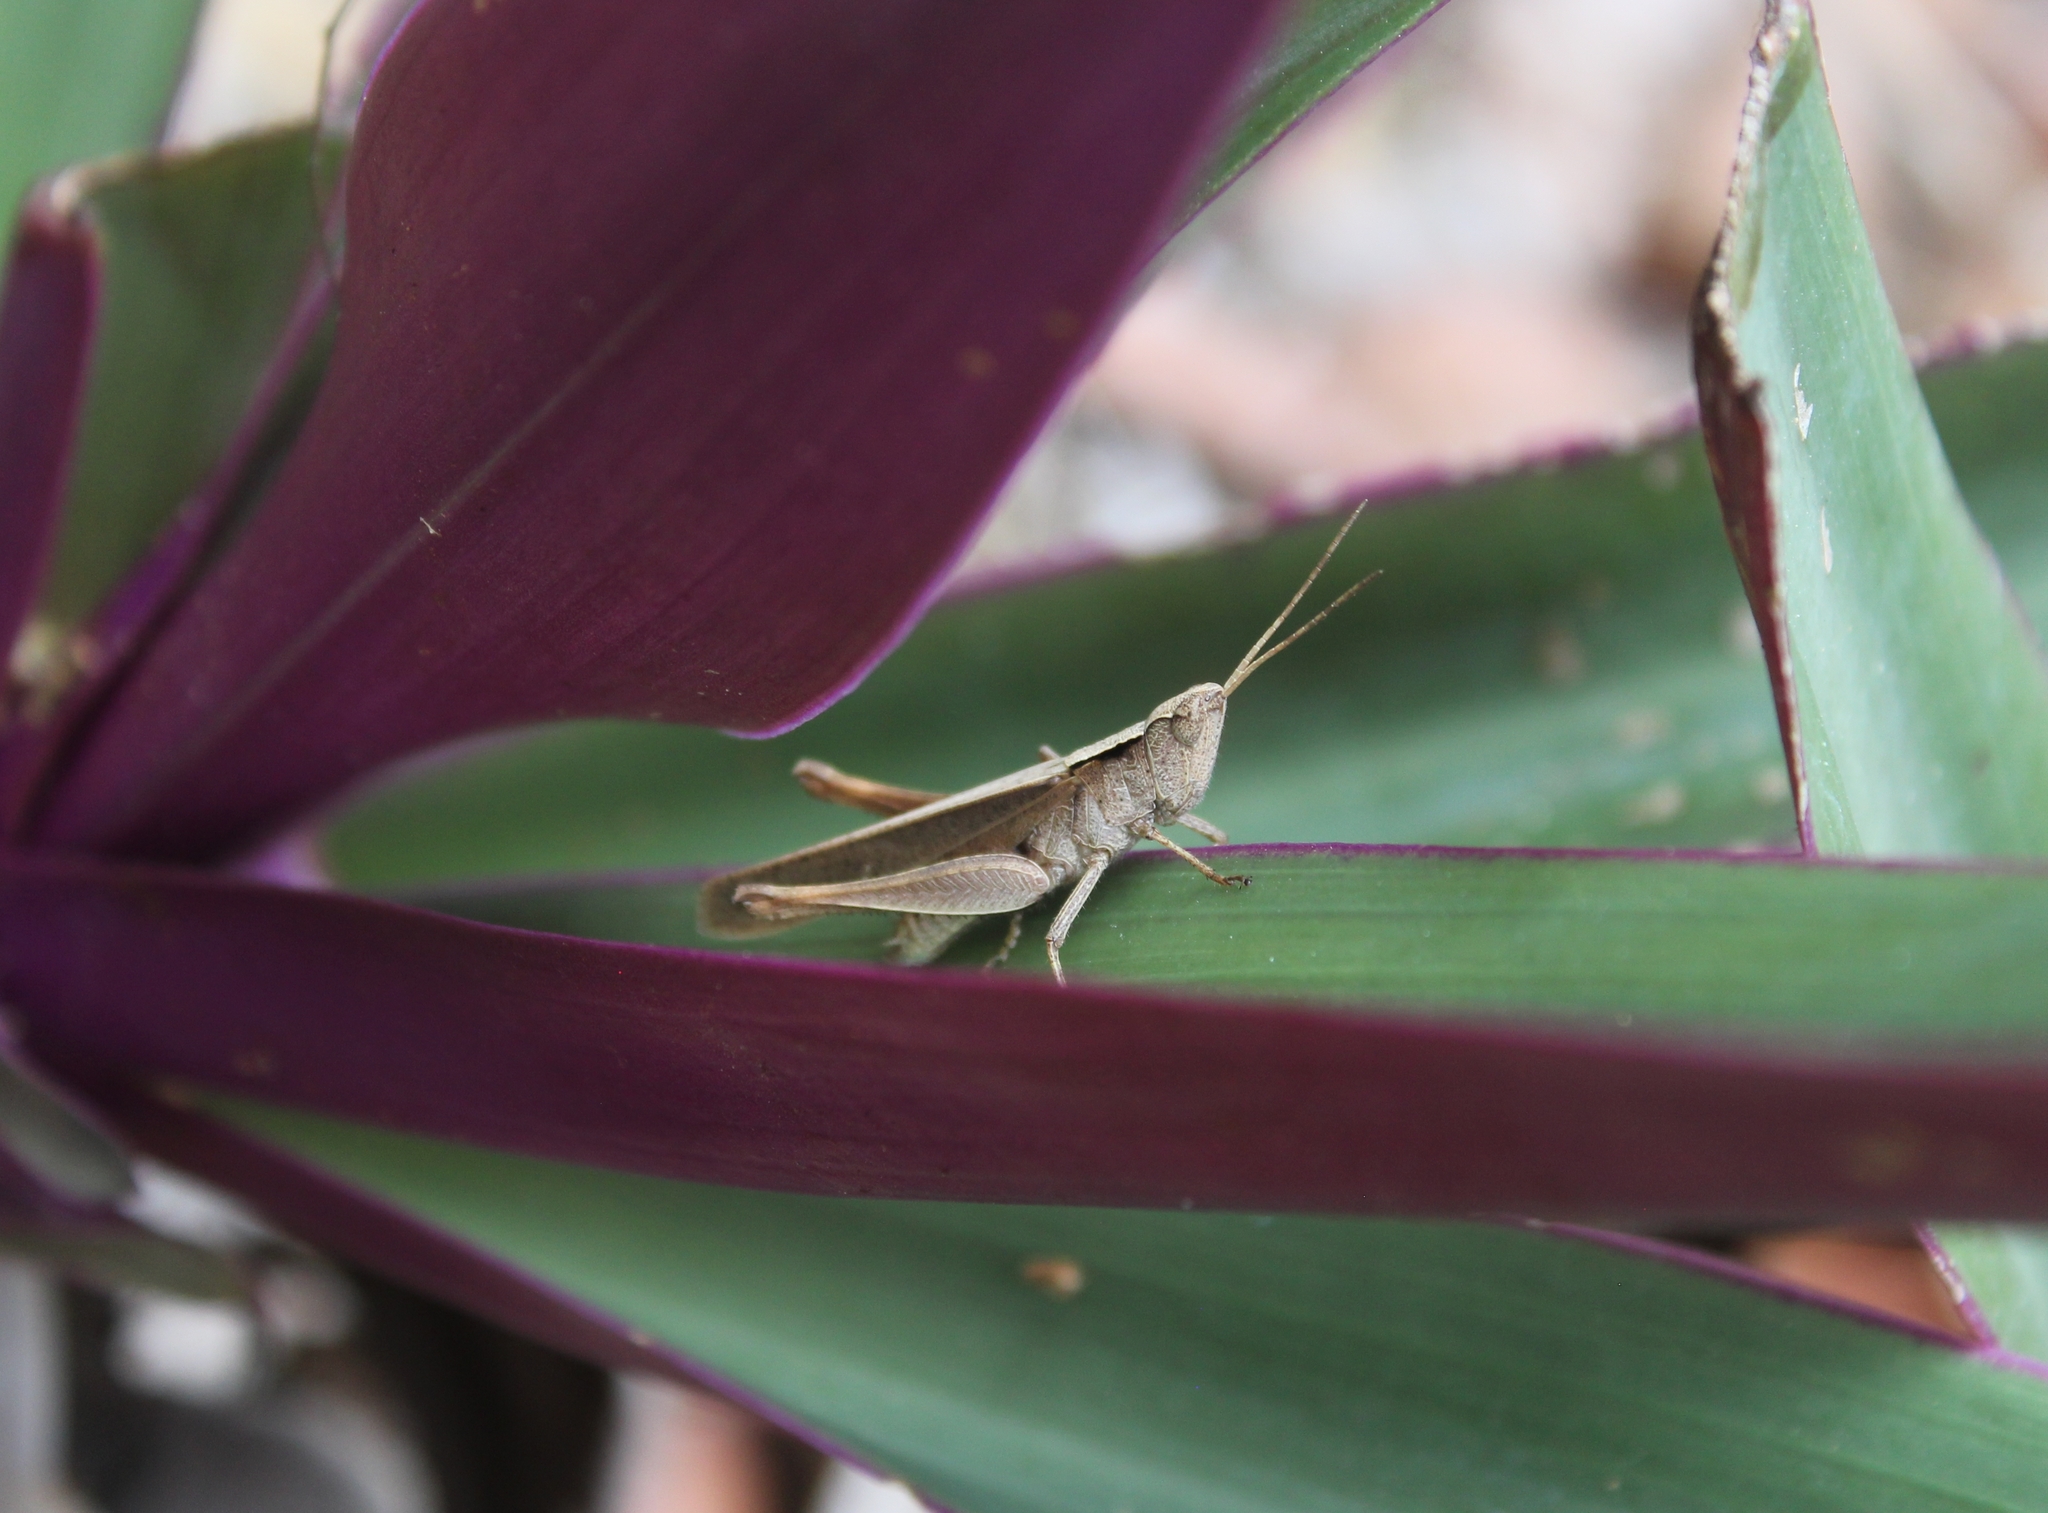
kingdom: Animalia
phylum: Arthropoda
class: Insecta
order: Orthoptera
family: Acrididae
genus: Orphula
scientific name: Orphula vitripennis
